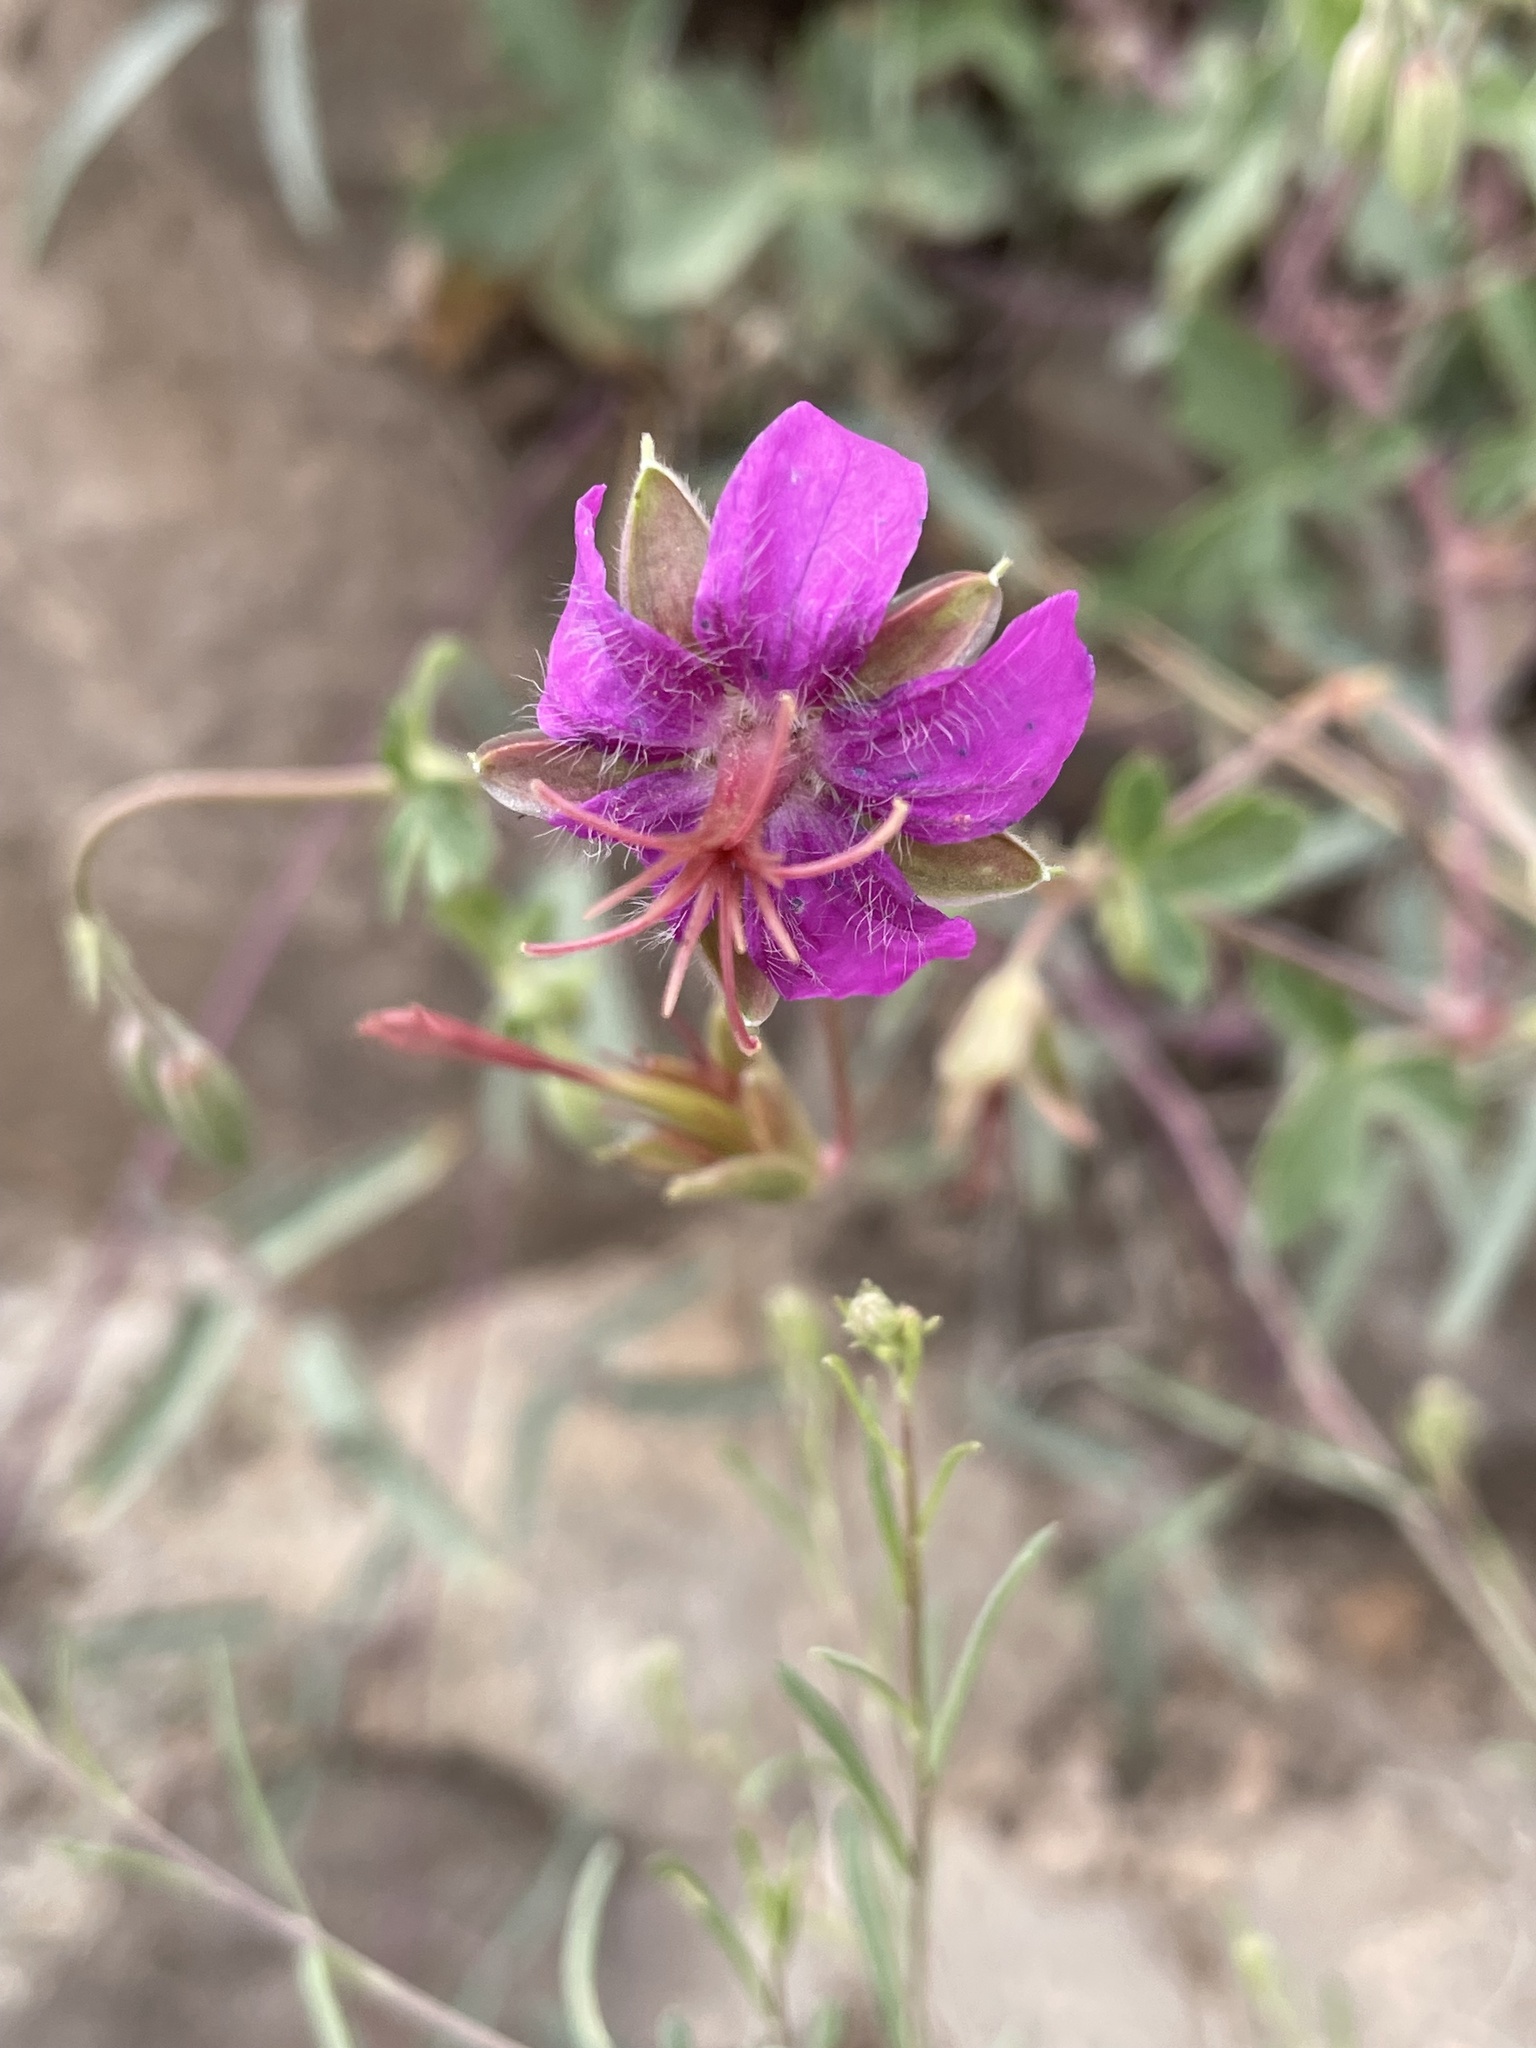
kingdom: Plantae
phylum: Tracheophyta
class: Magnoliopsida
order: Geraniales
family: Geraniaceae
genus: Geranium
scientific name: Geranium caespitosum
